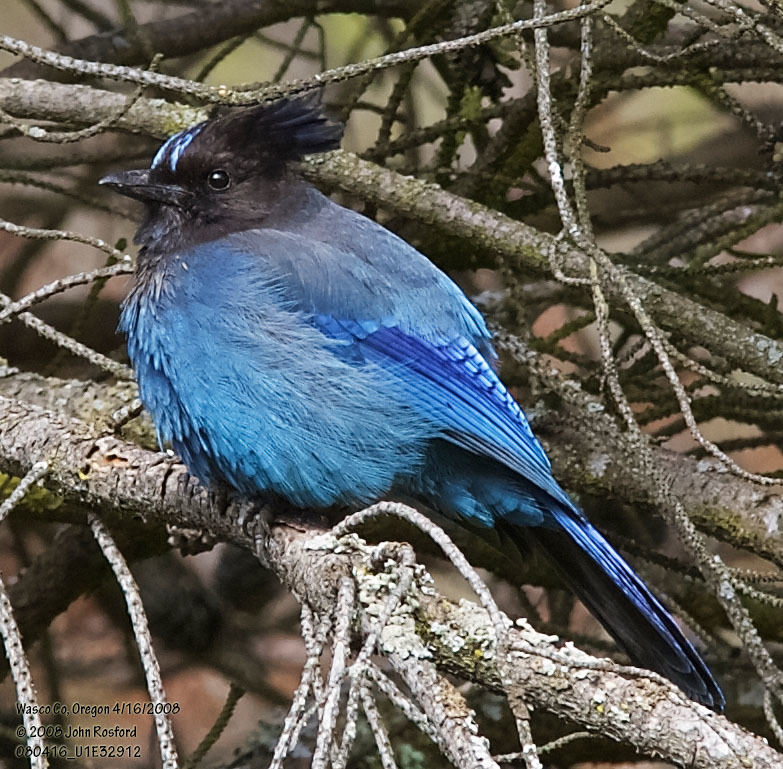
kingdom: Animalia
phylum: Chordata
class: Aves
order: Passeriformes
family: Corvidae
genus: Cyanocitta
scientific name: Cyanocitta stelleri
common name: Steller's jay
